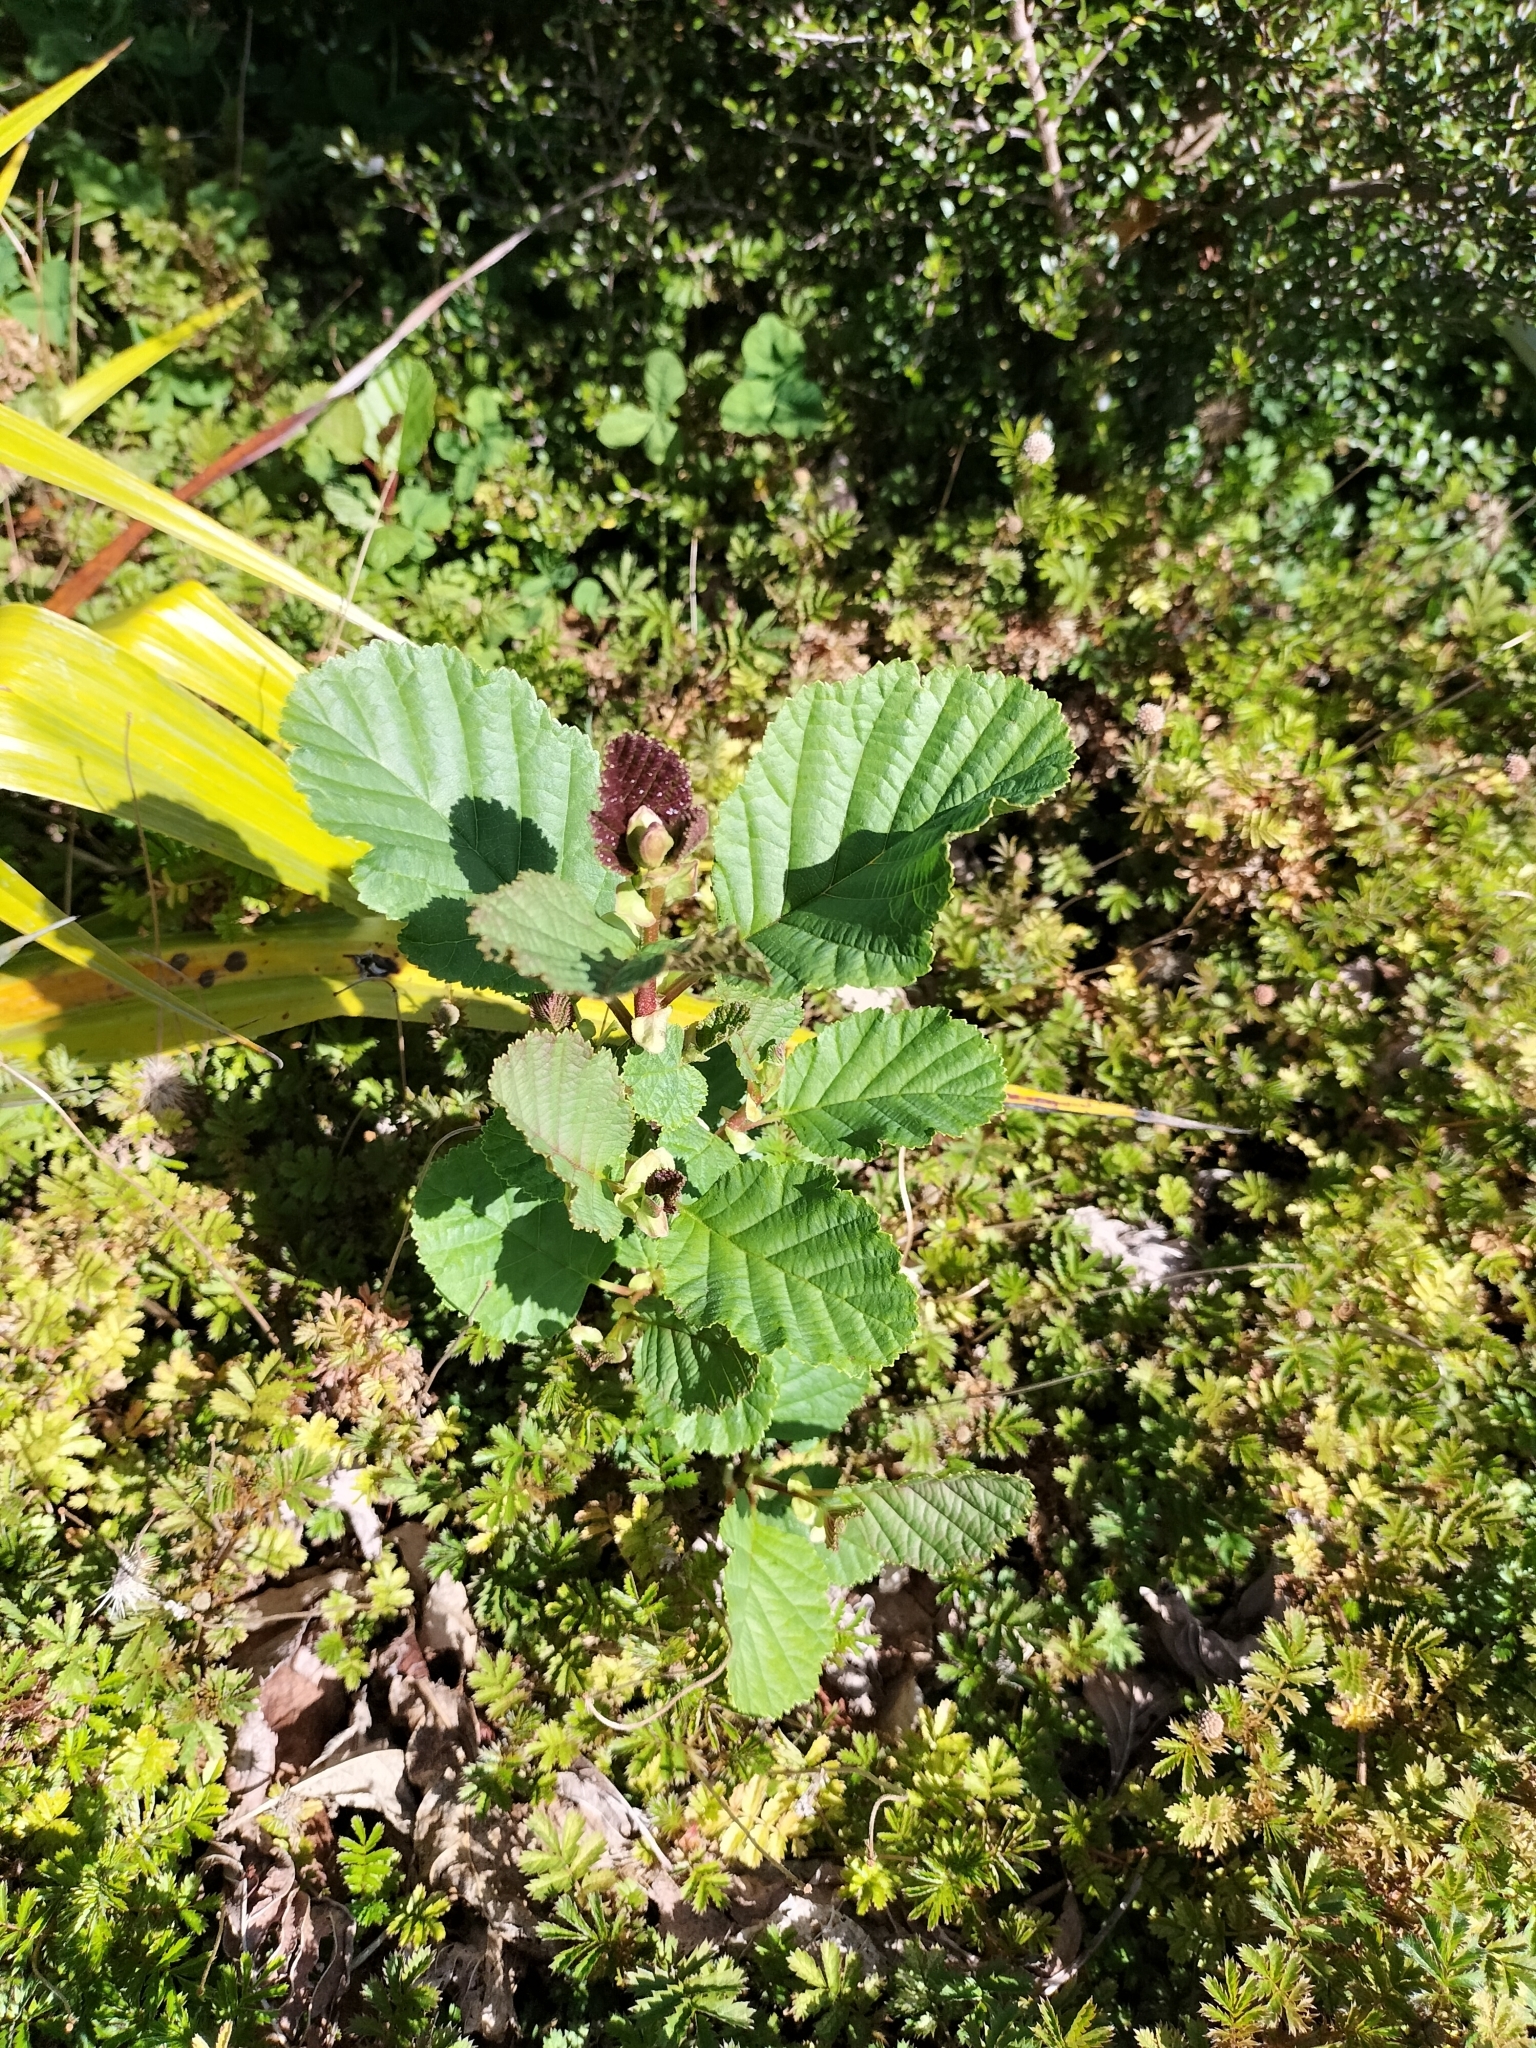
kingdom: Plantae
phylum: Tracheophyta
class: Magnoliopsida
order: Fagales
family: Betulaceae
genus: Alnus
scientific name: Alnus glutinosa
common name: Black alder
